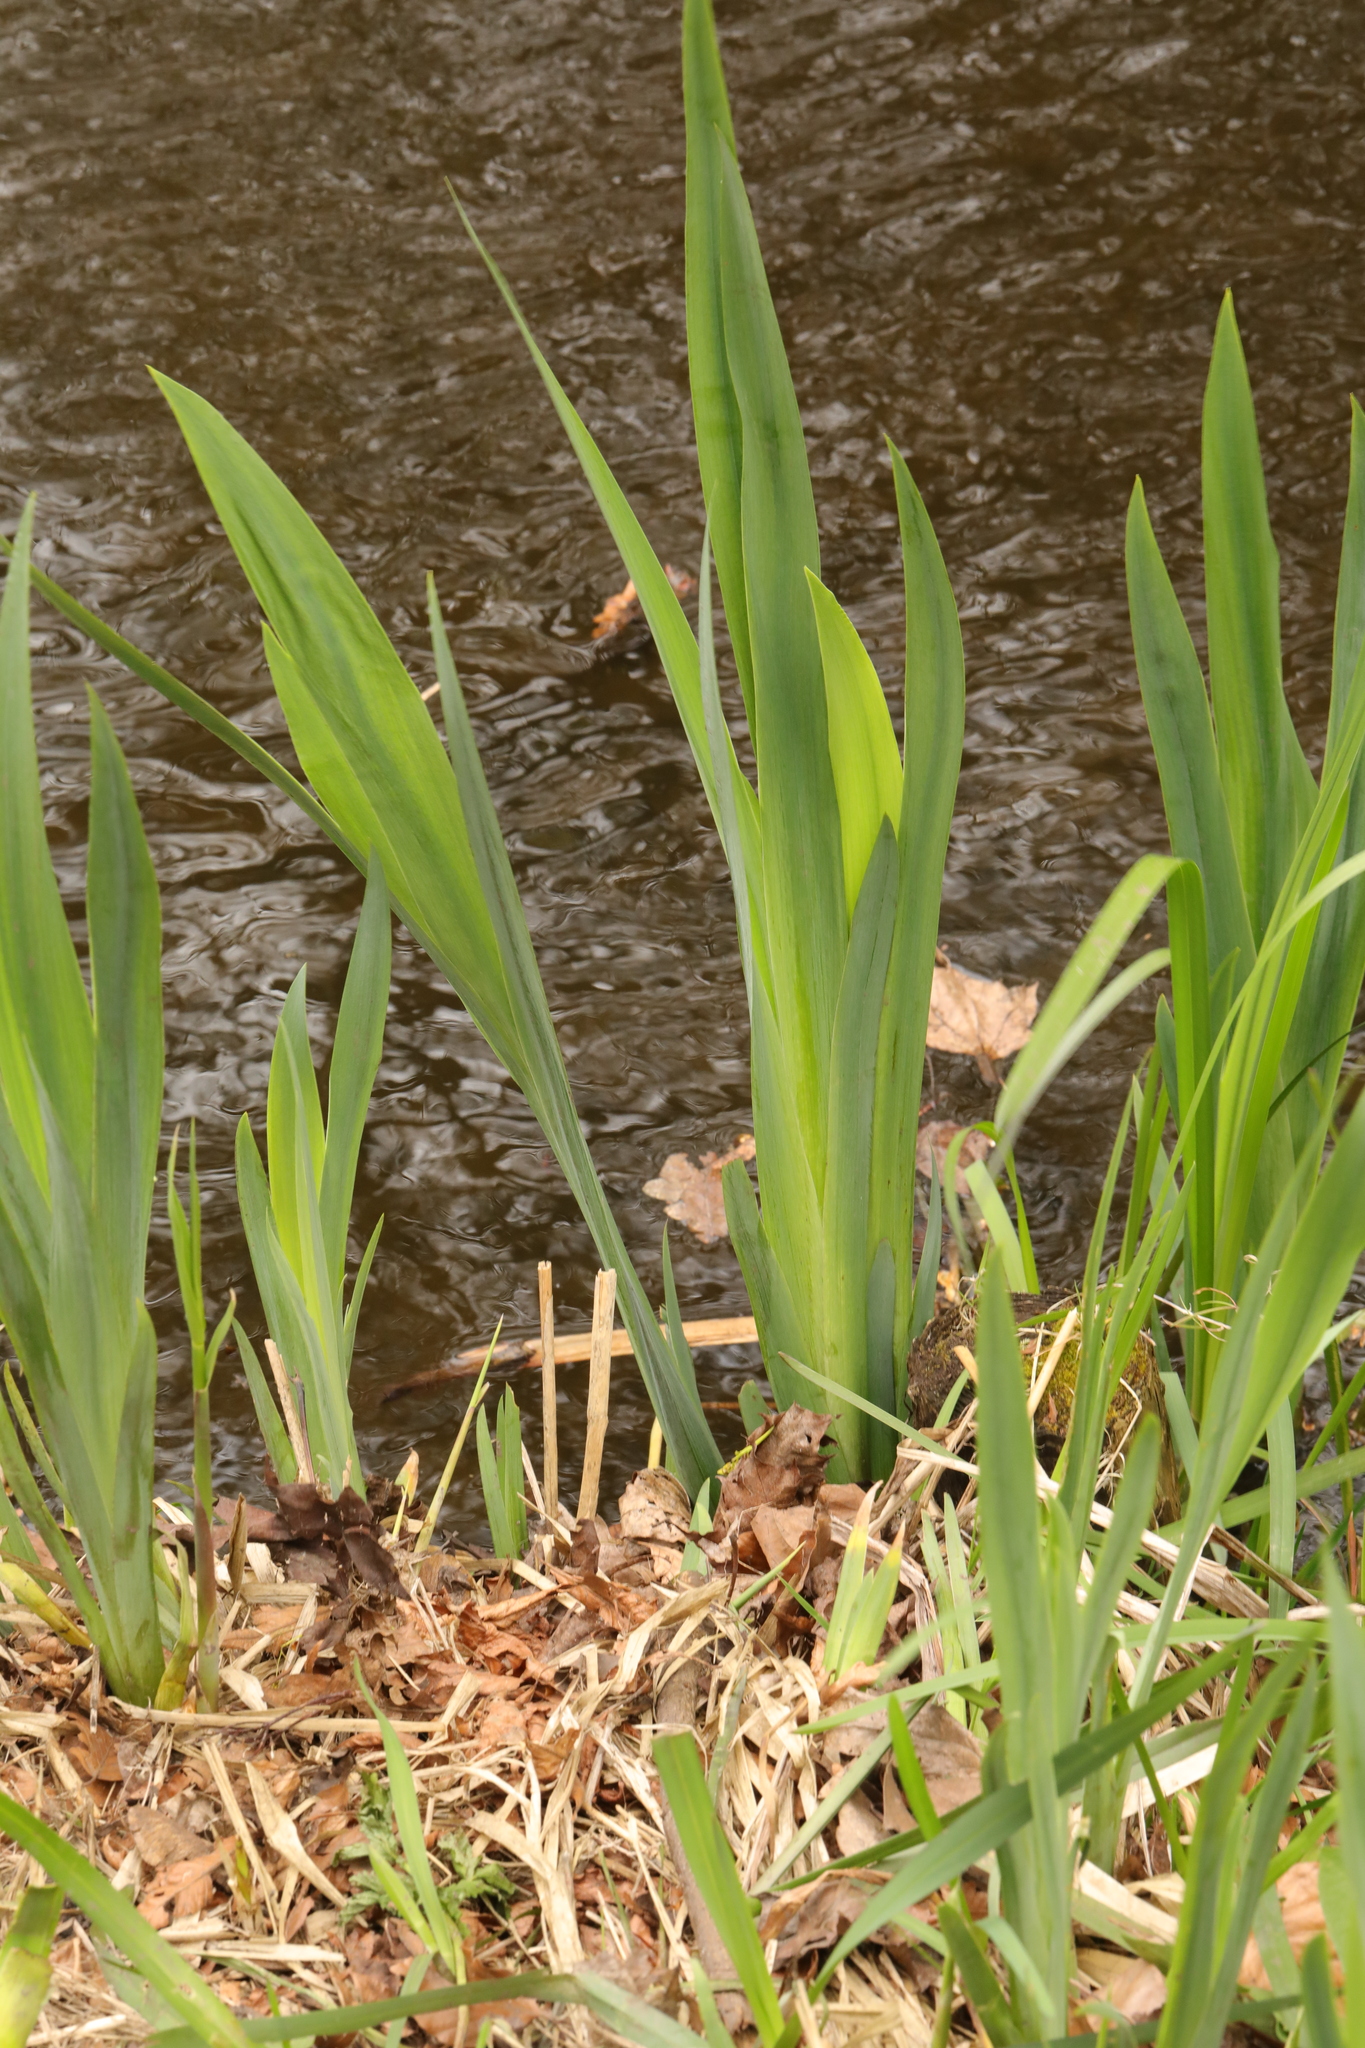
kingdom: Plantae
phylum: Tracheophyta
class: Liliopsida
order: Asparagales
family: Iridaceae
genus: Iris
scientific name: Iris pseudacorus
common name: Yellow flag
